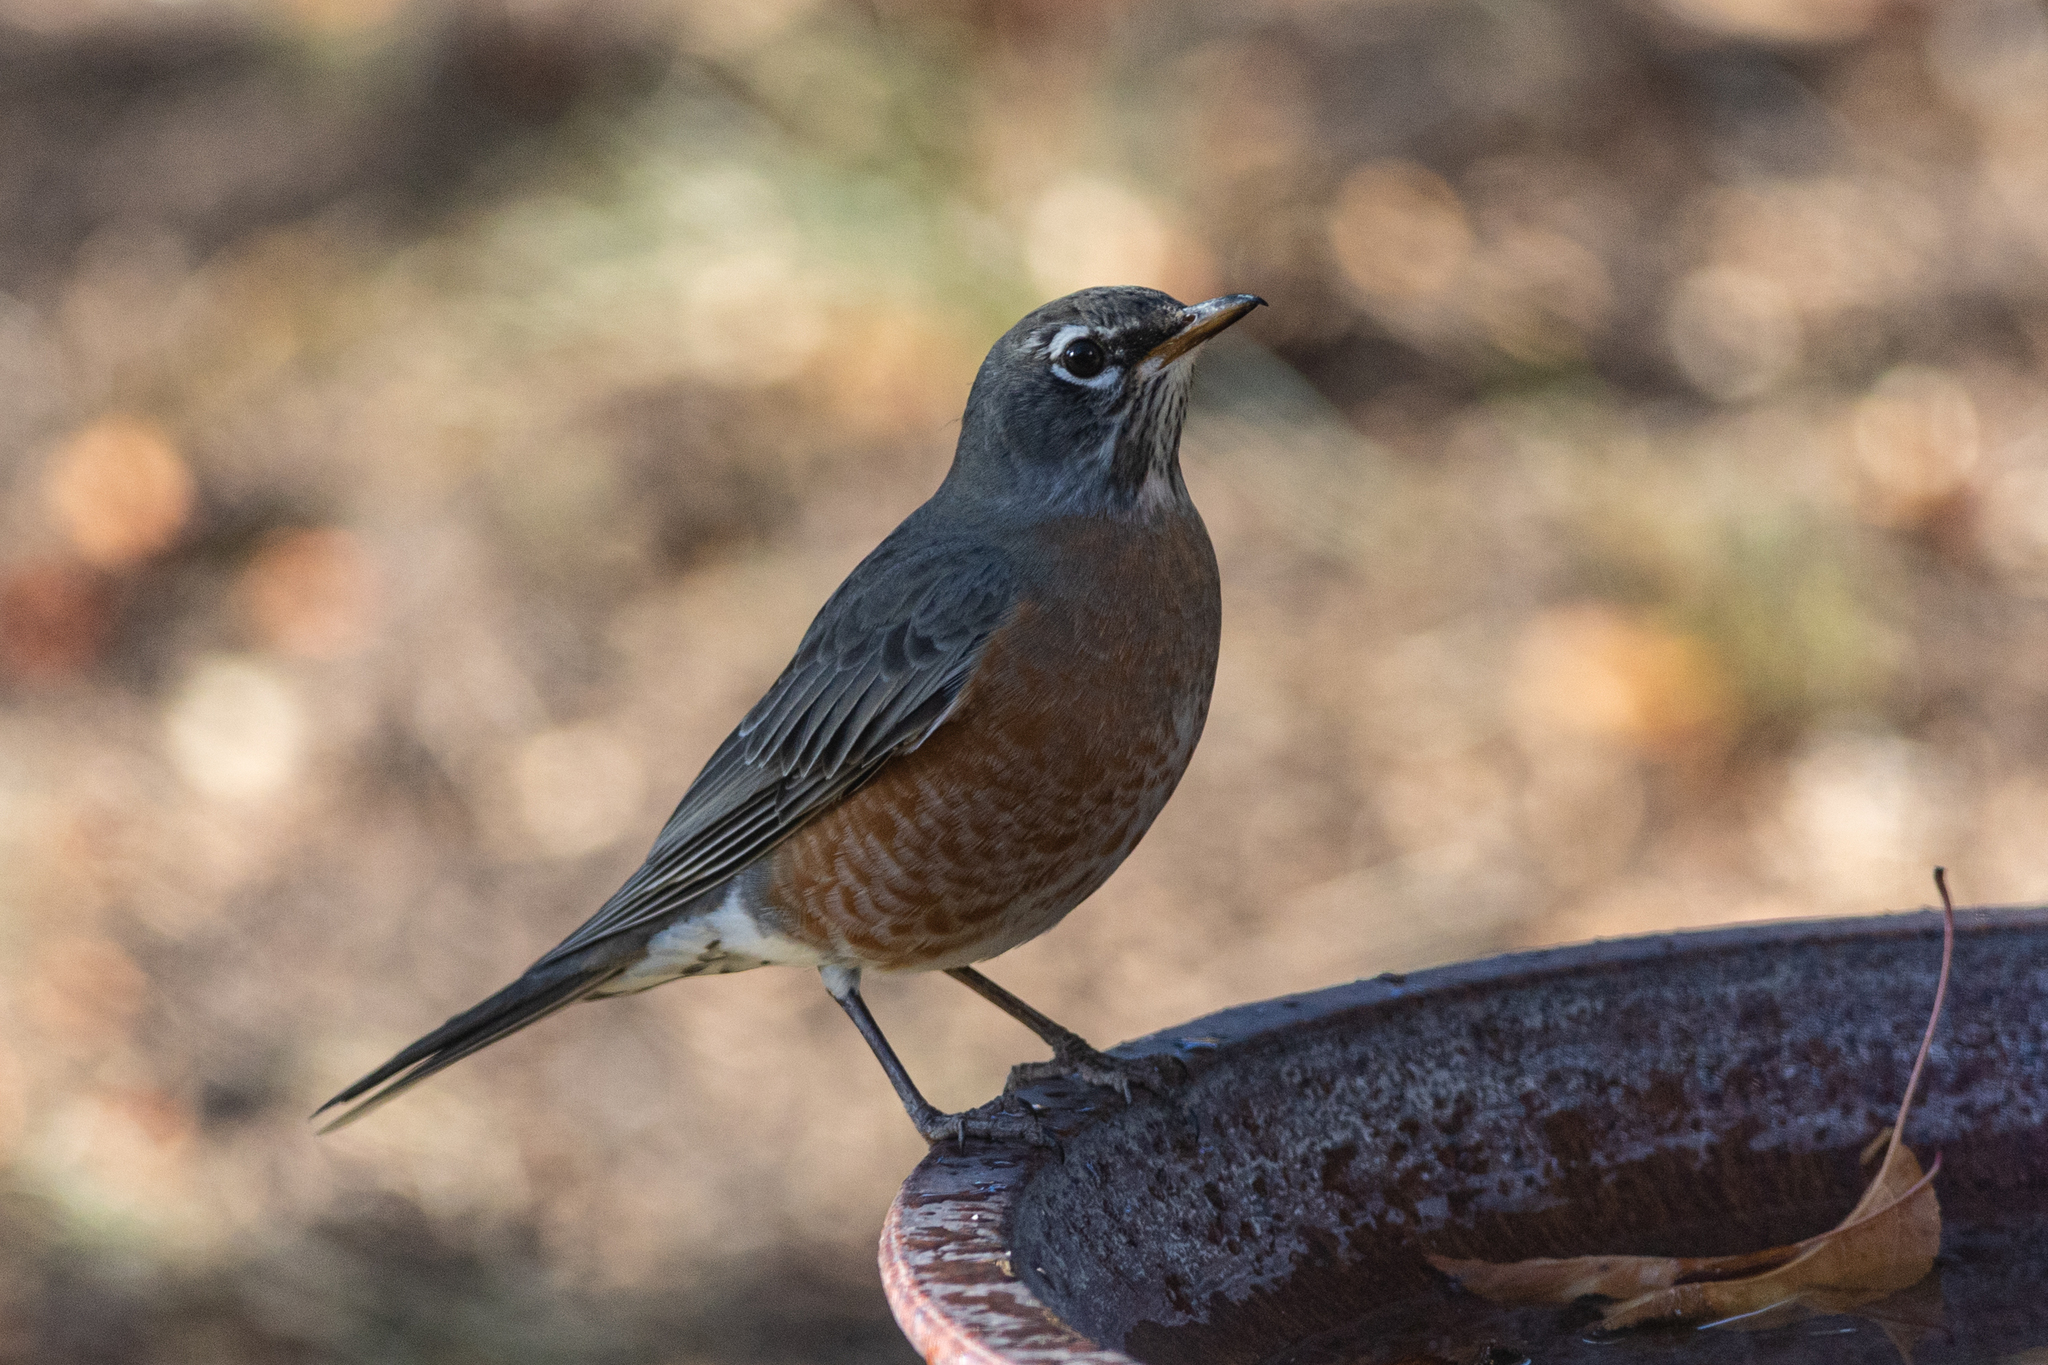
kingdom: Animalia
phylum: Chordata
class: Aves
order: Passeriformes
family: Turdidae
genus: Turdus
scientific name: Turdus migratorius
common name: American robin
